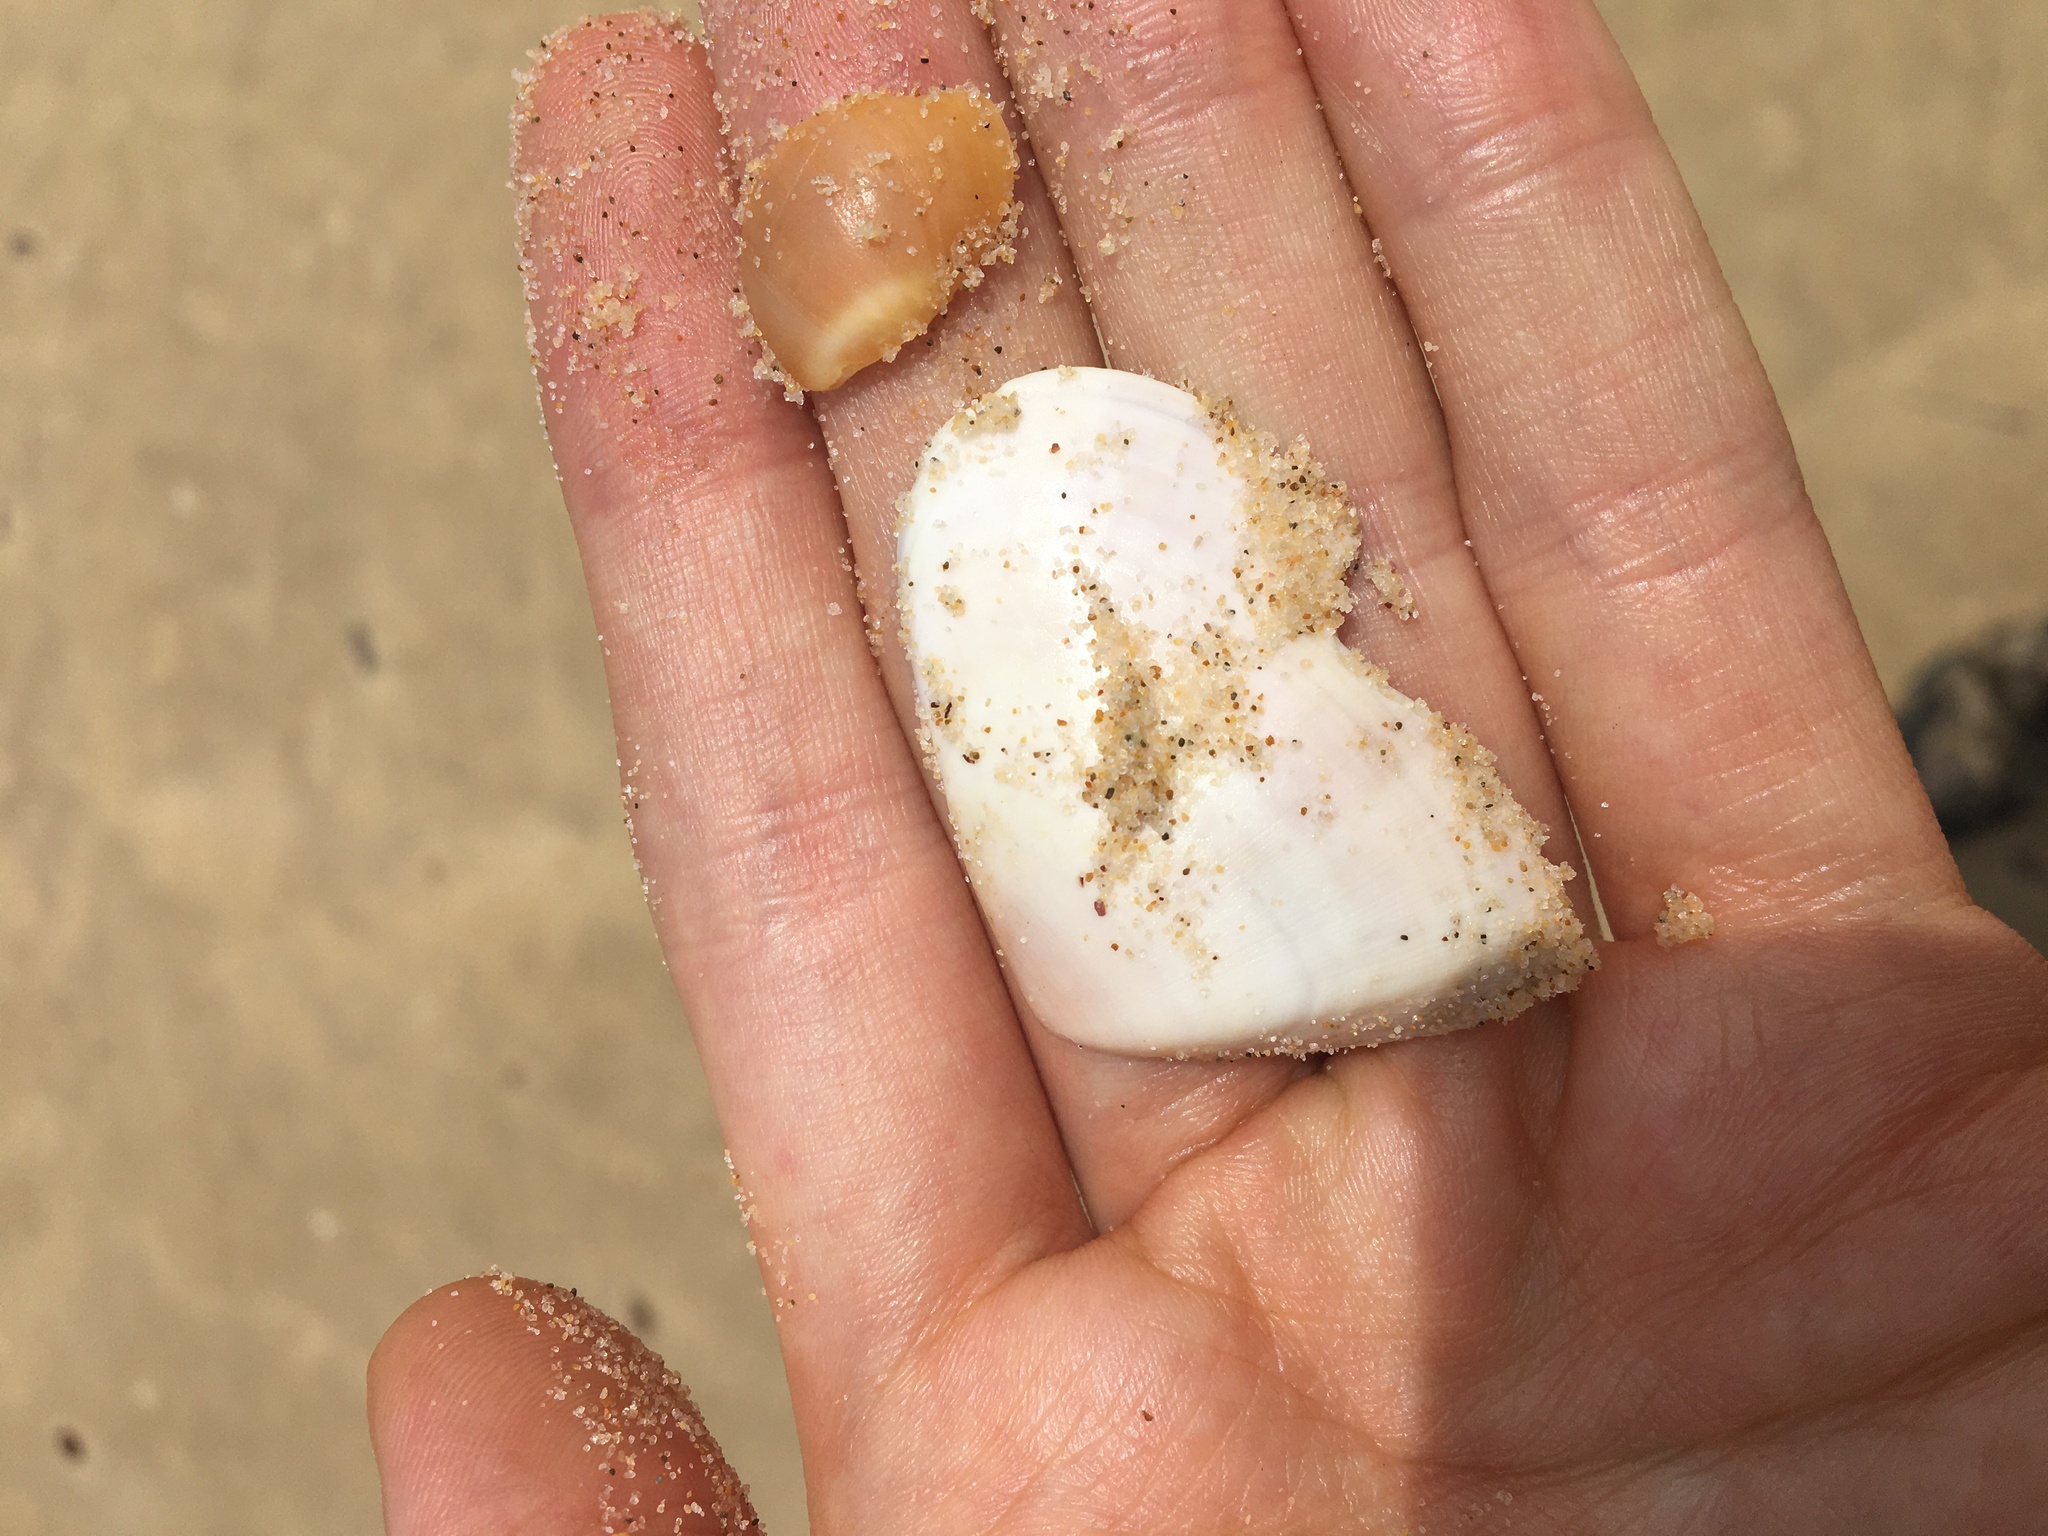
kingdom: Animalia
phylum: Mollusca
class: Bivalvia
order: Cardiida
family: Donacidae
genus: Latona
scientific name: Latona deltoides
